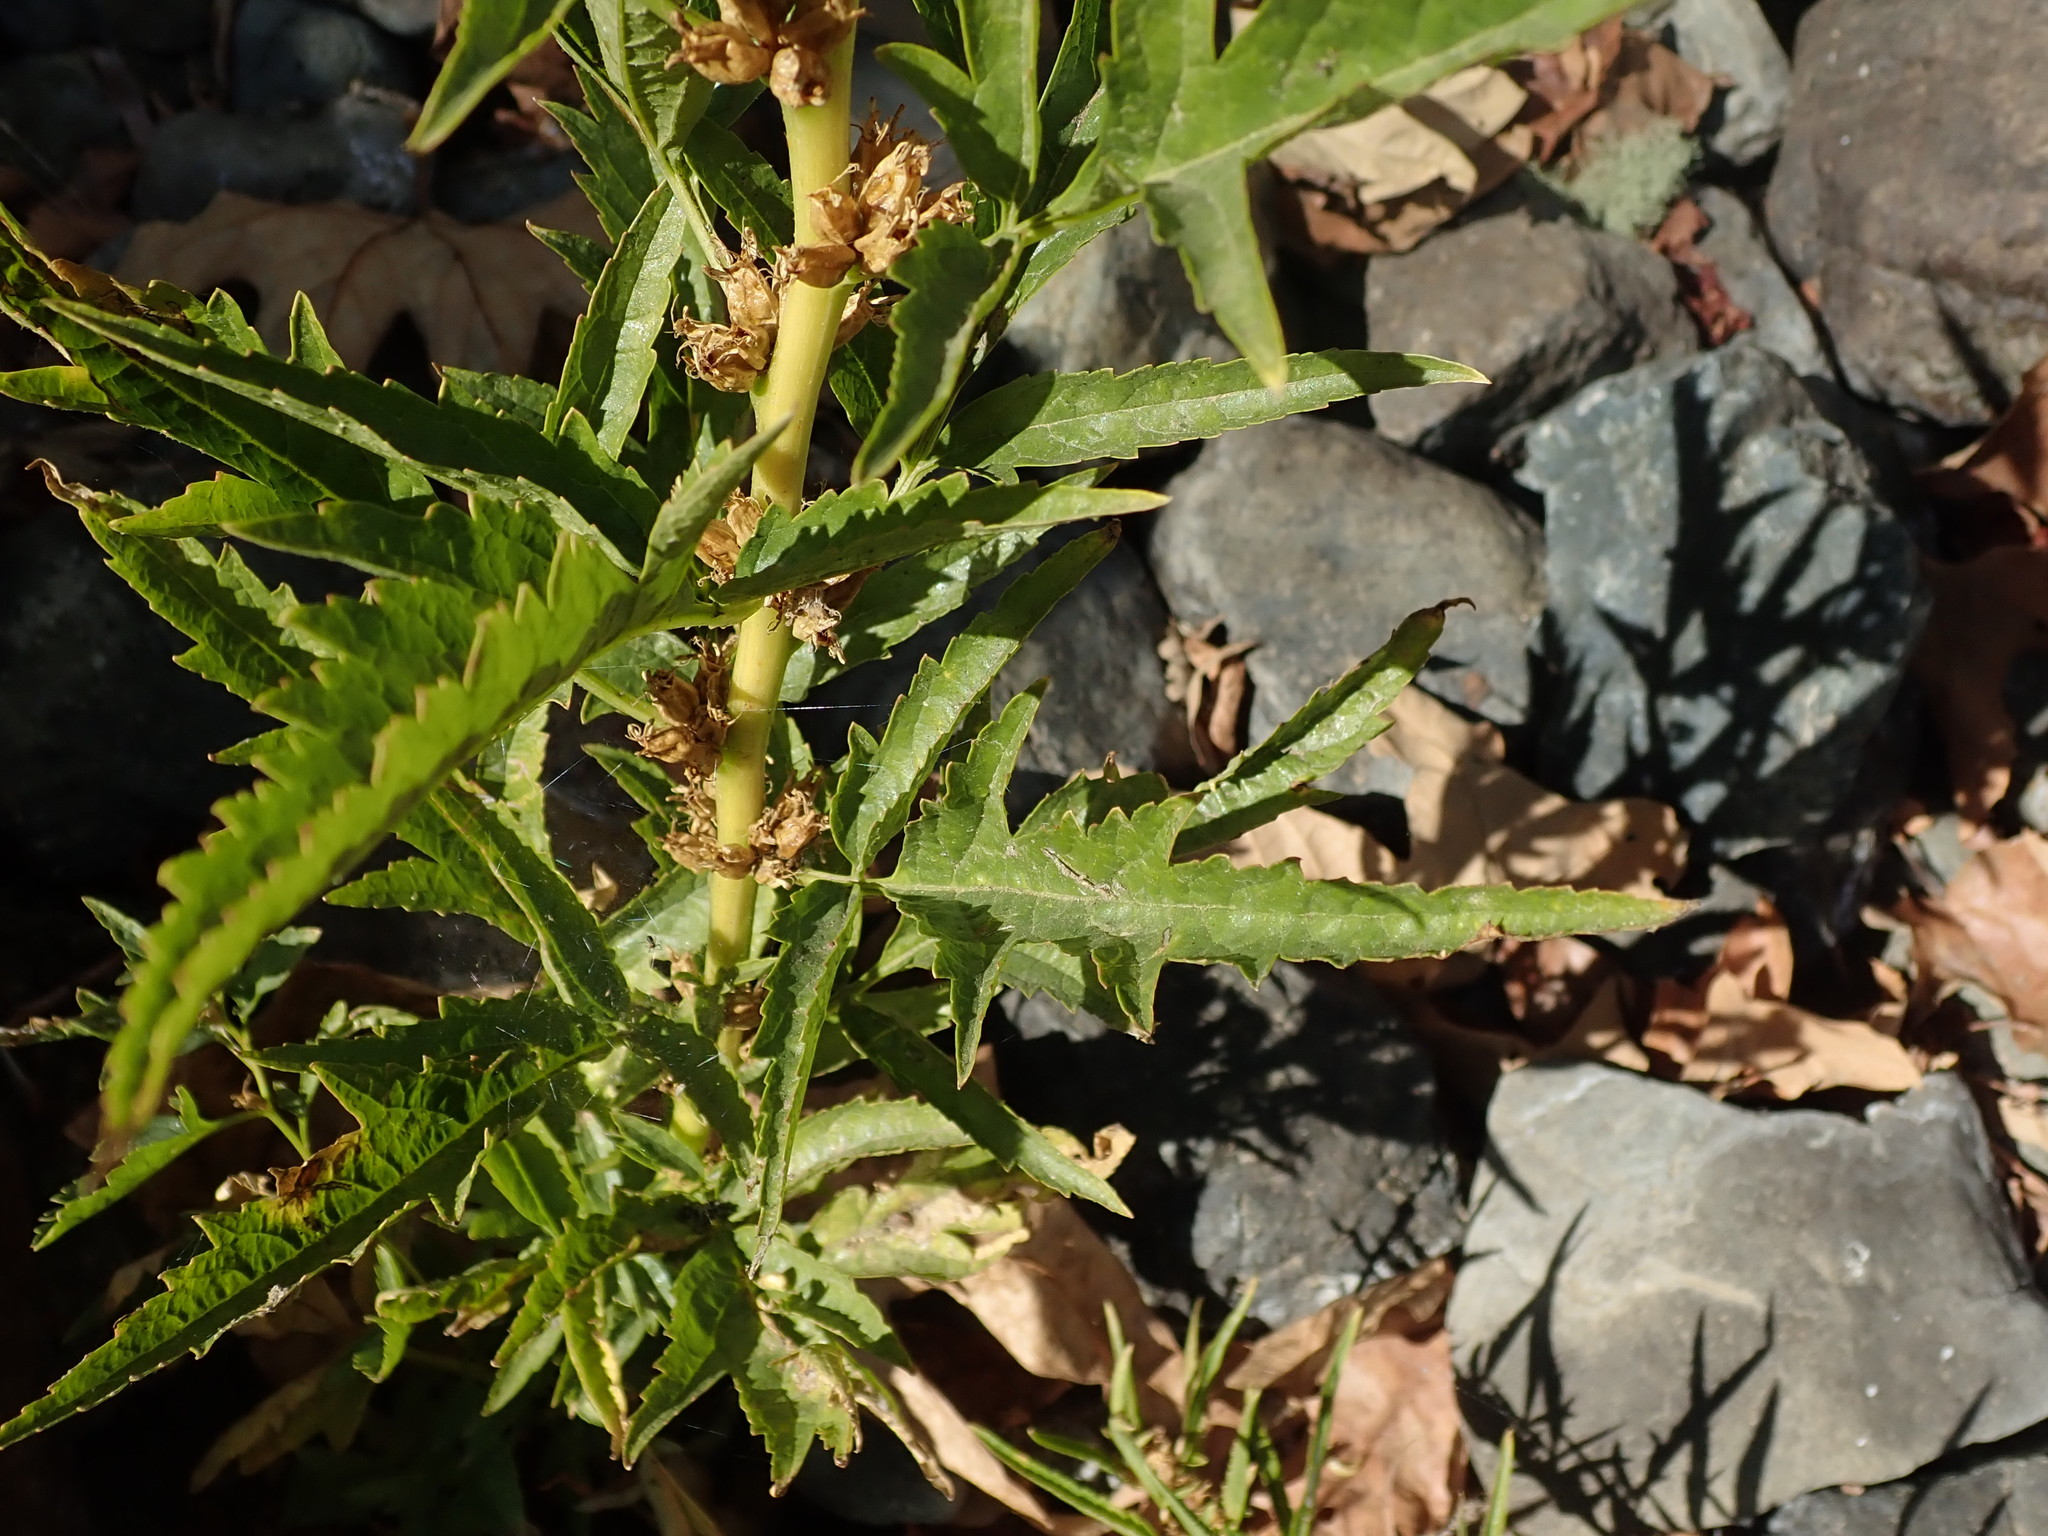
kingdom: Plantae
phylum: Tracheophyta
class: Magnoliopsida
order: Cucurbitales
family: Datiscaceae
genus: Datisca
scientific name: Datisca glomerata
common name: Durango-root
